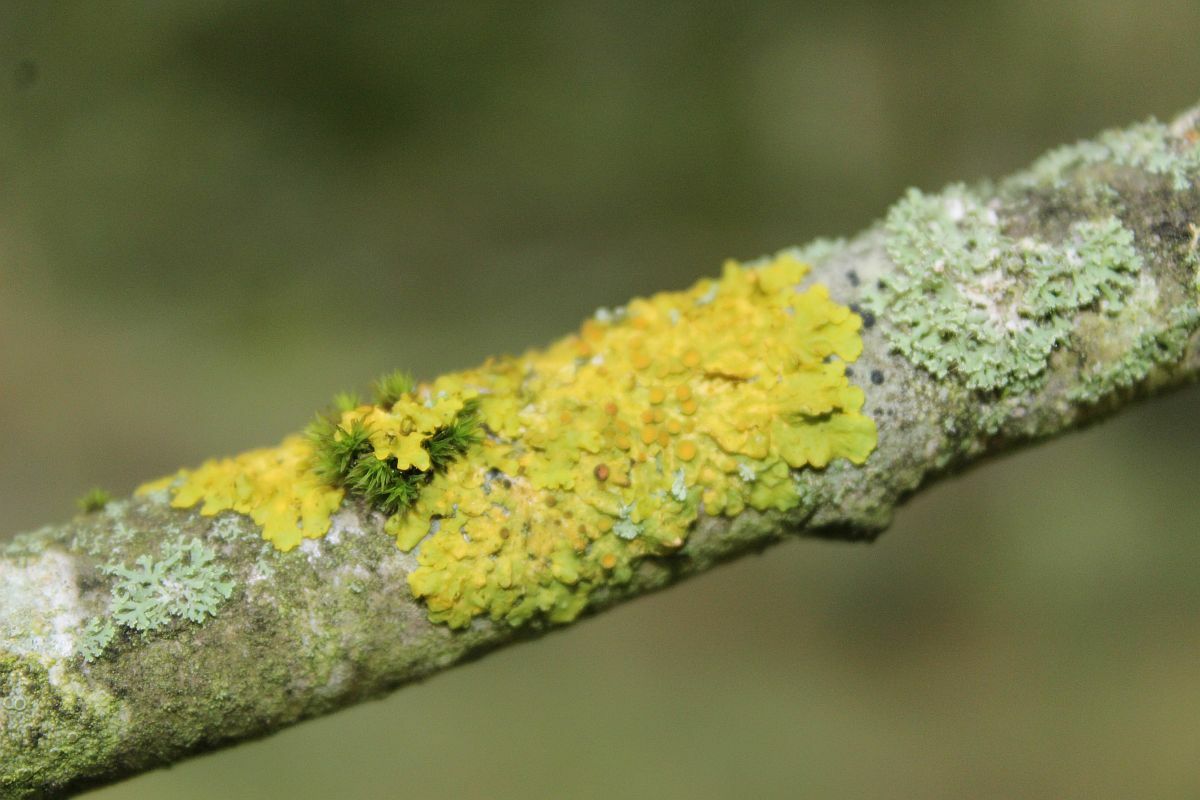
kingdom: Fungi
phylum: Ascomycota
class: Lecanoromycetes
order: Teloschistales
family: Teloschistaceae
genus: Xanthoria
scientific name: Xanthoria parietina
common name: Common orange lichen
